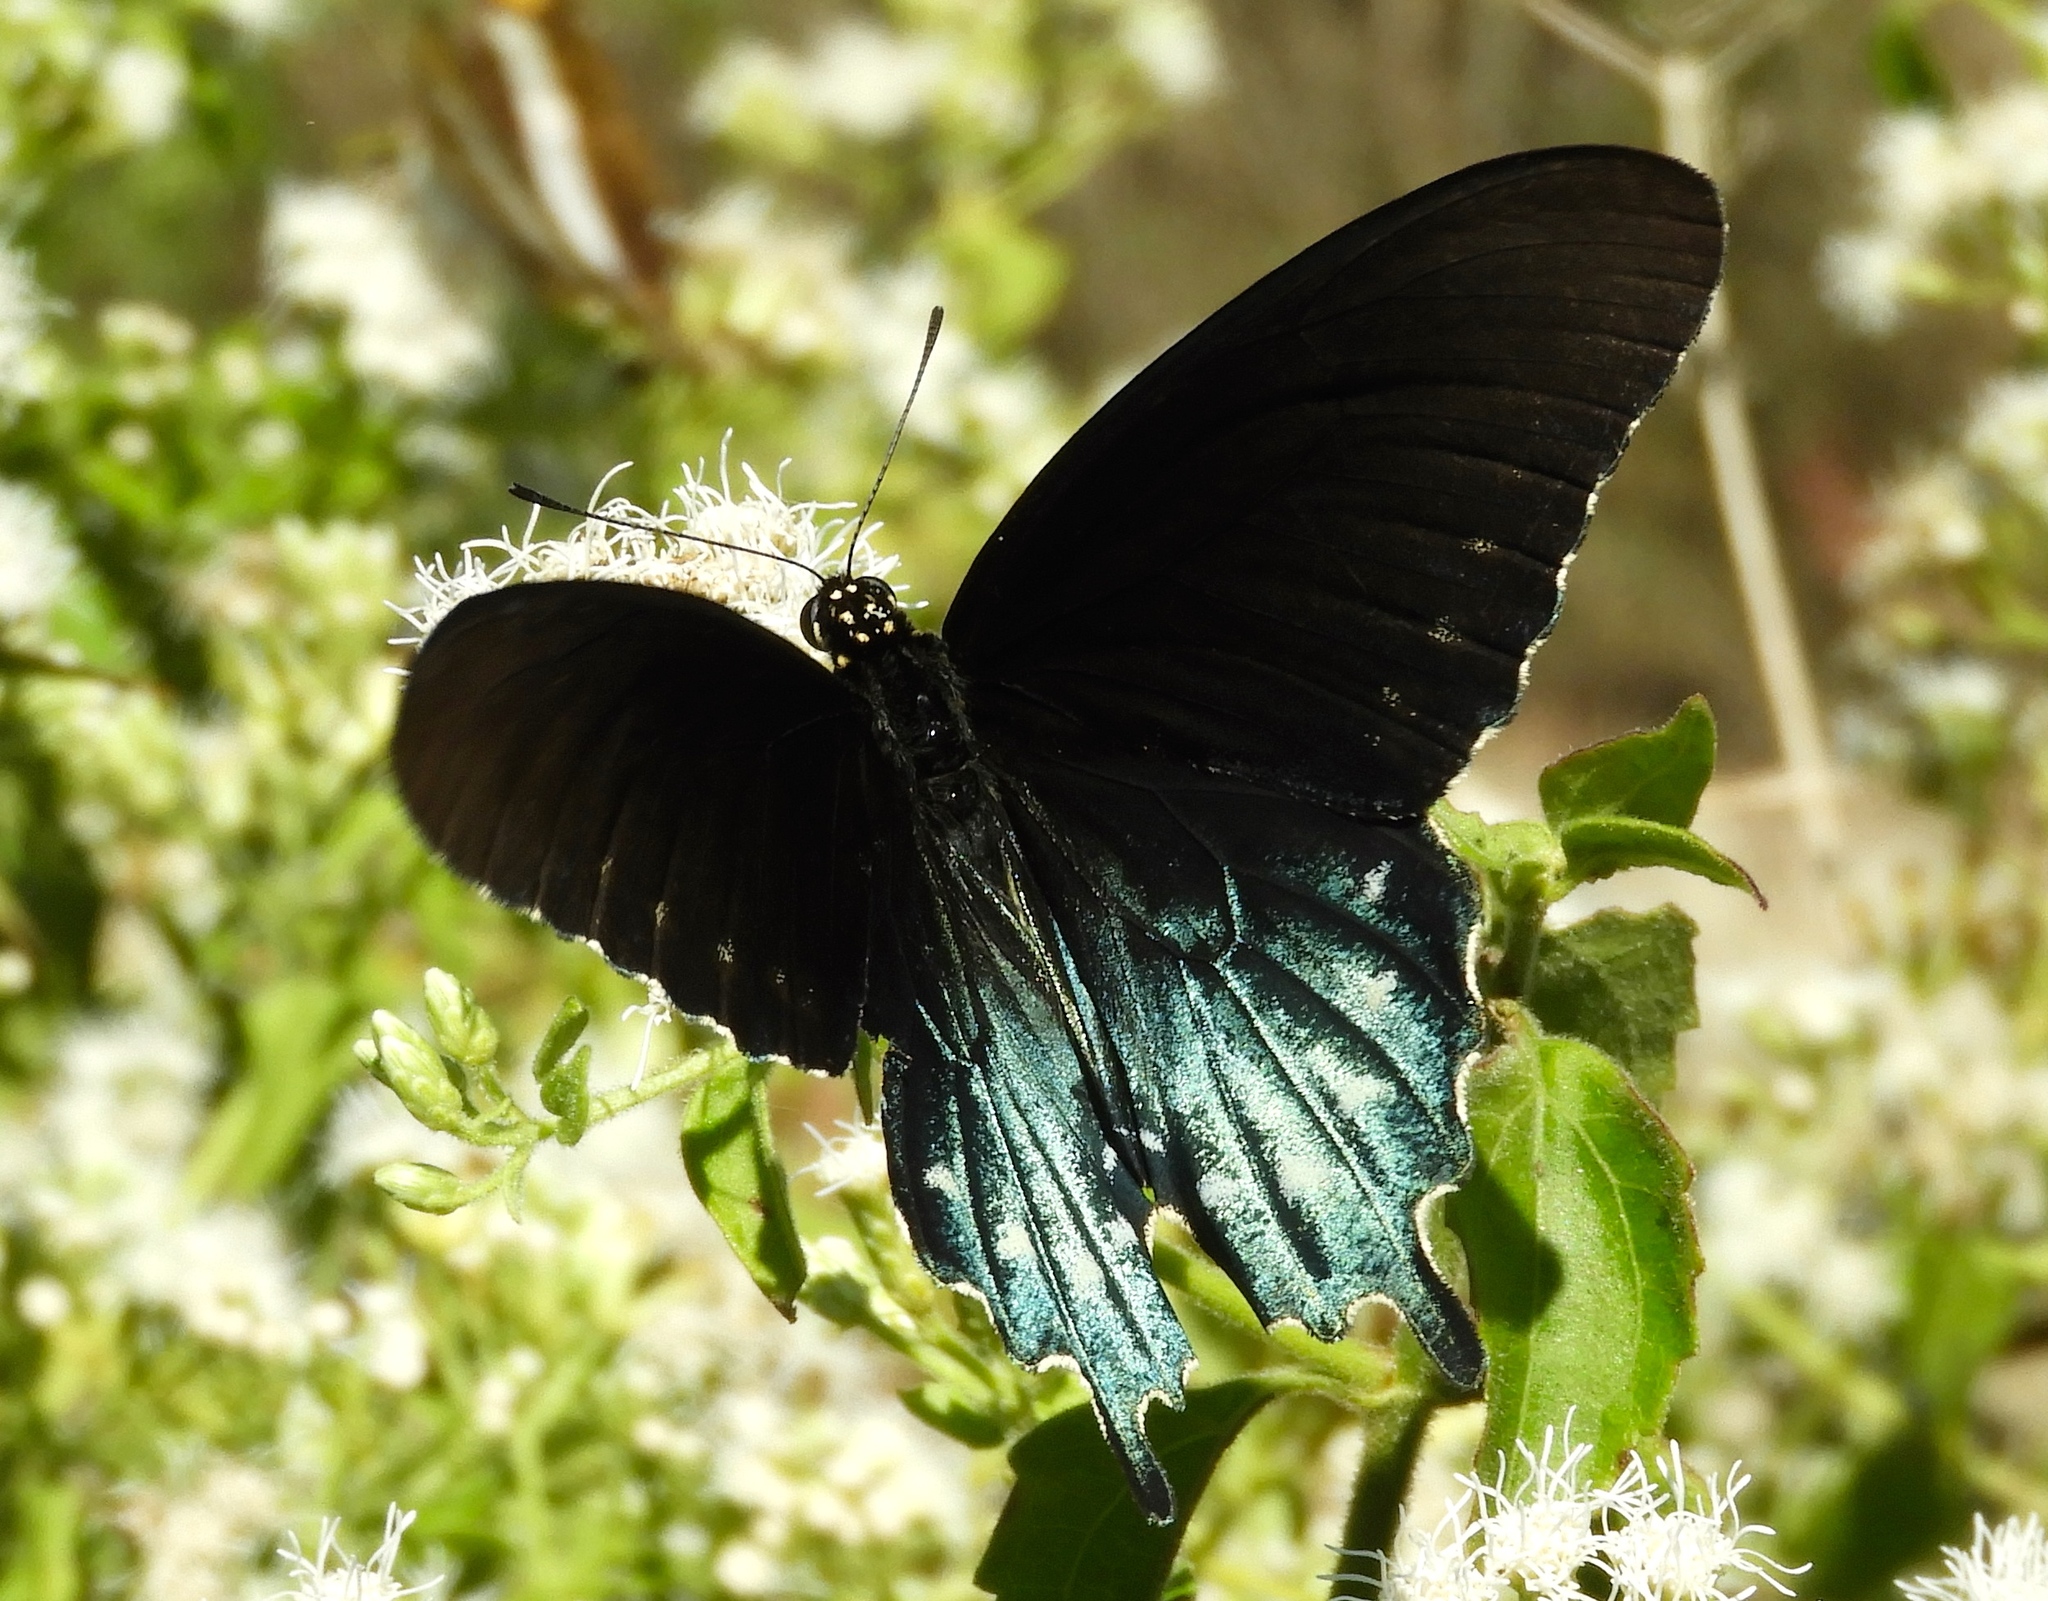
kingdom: Animalia
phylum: Arthropoda
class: Insecta
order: Lepidoptera
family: Papilionidae
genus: Battus
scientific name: Battus philenor
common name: Pipevine swallowtail
